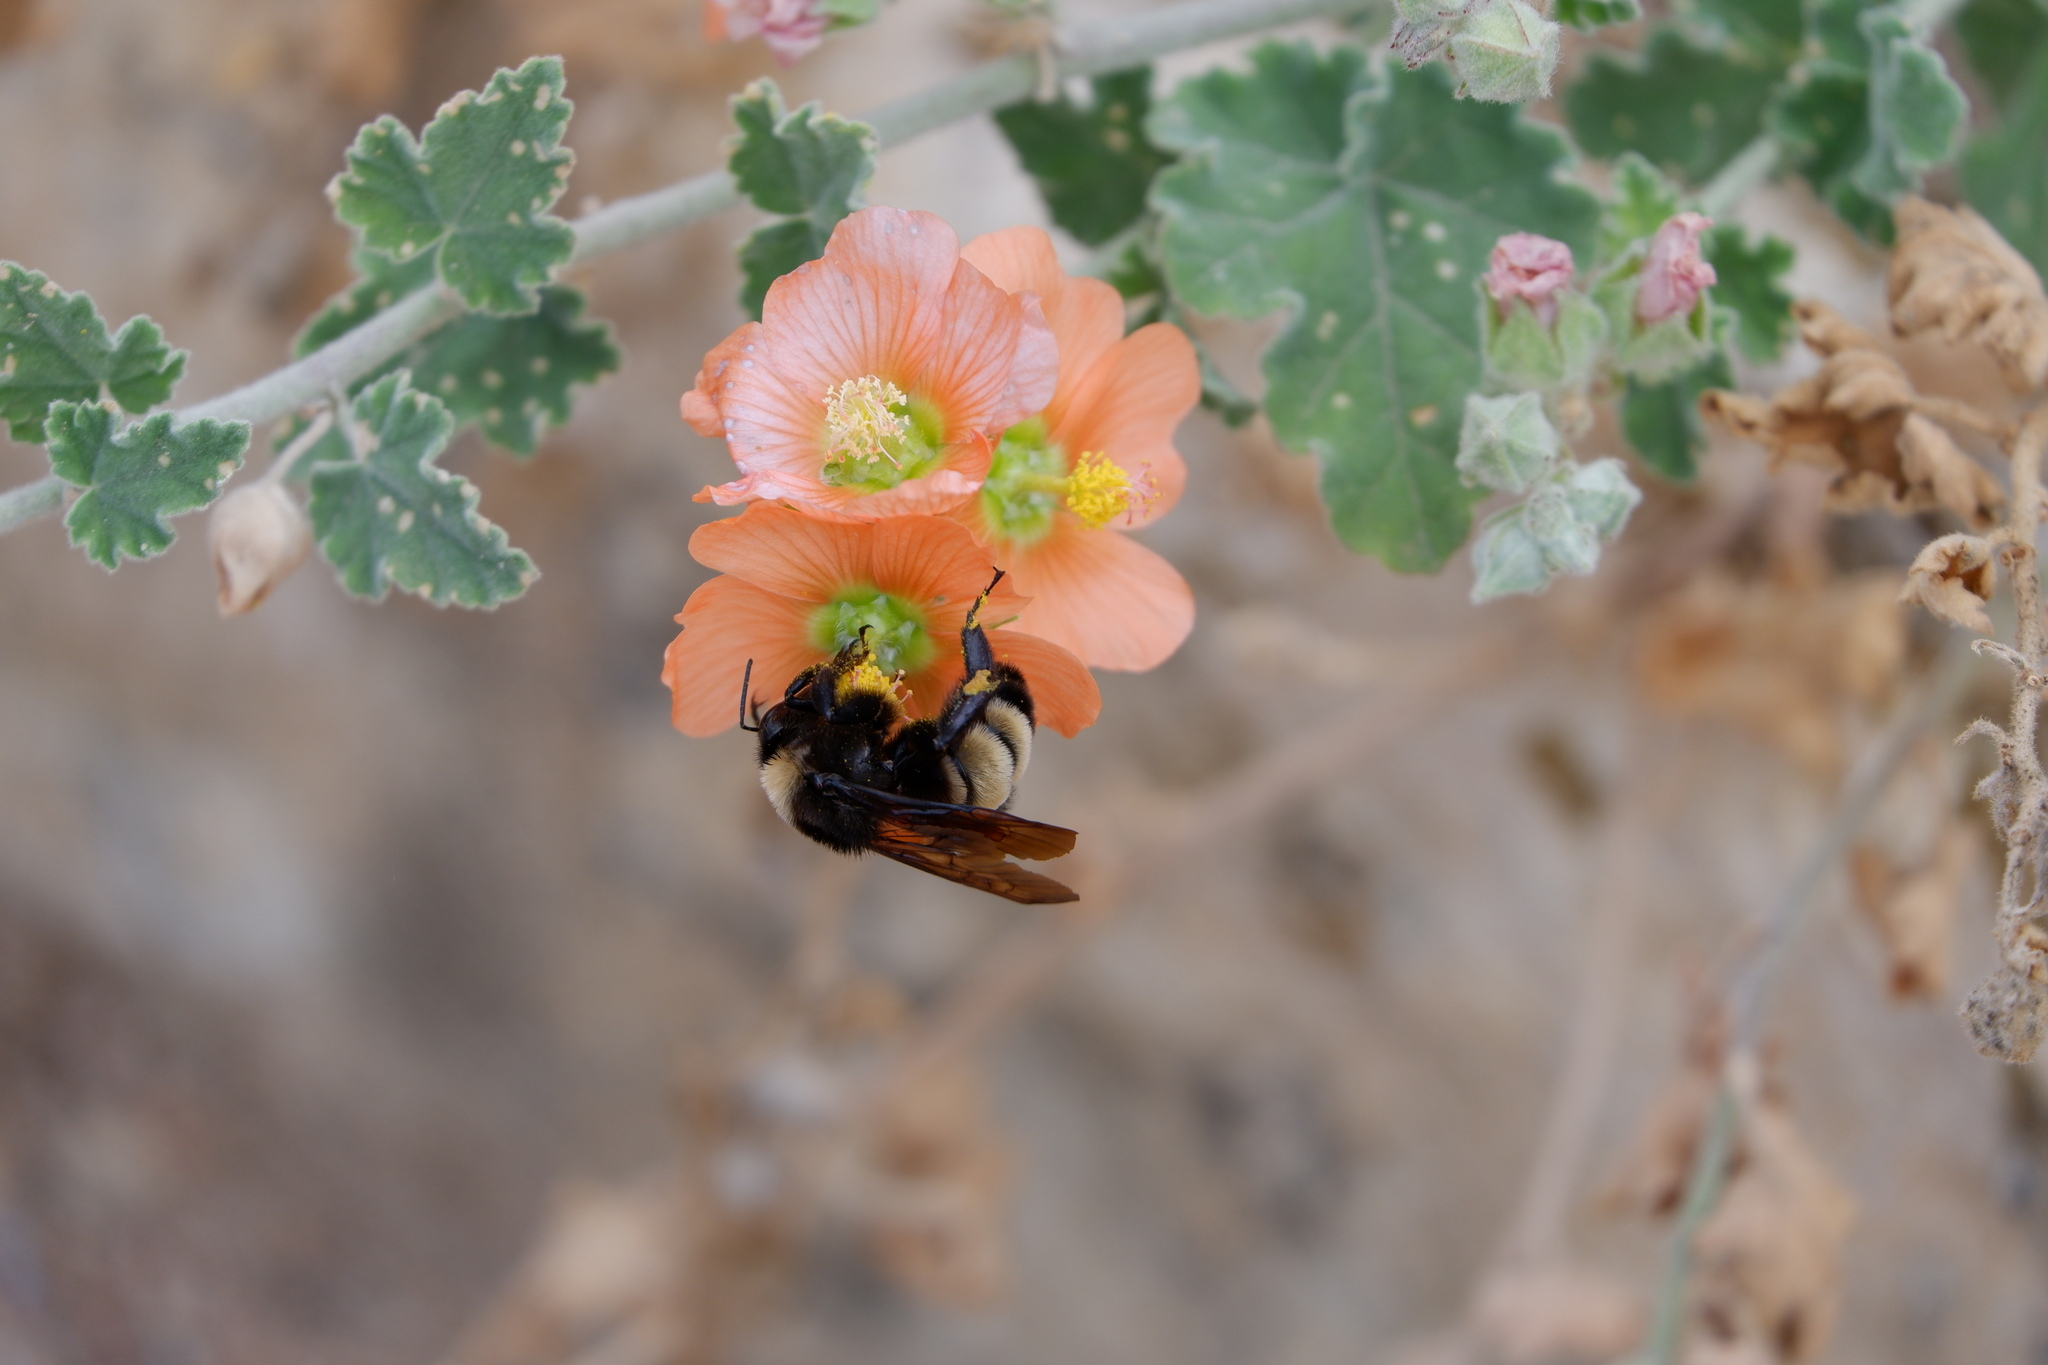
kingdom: Animalia
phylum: Arthropoda
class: Insecta
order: Hymenoptera
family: Apidae
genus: Bombus
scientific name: Bombus pensylvanicus
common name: Bumble bee
